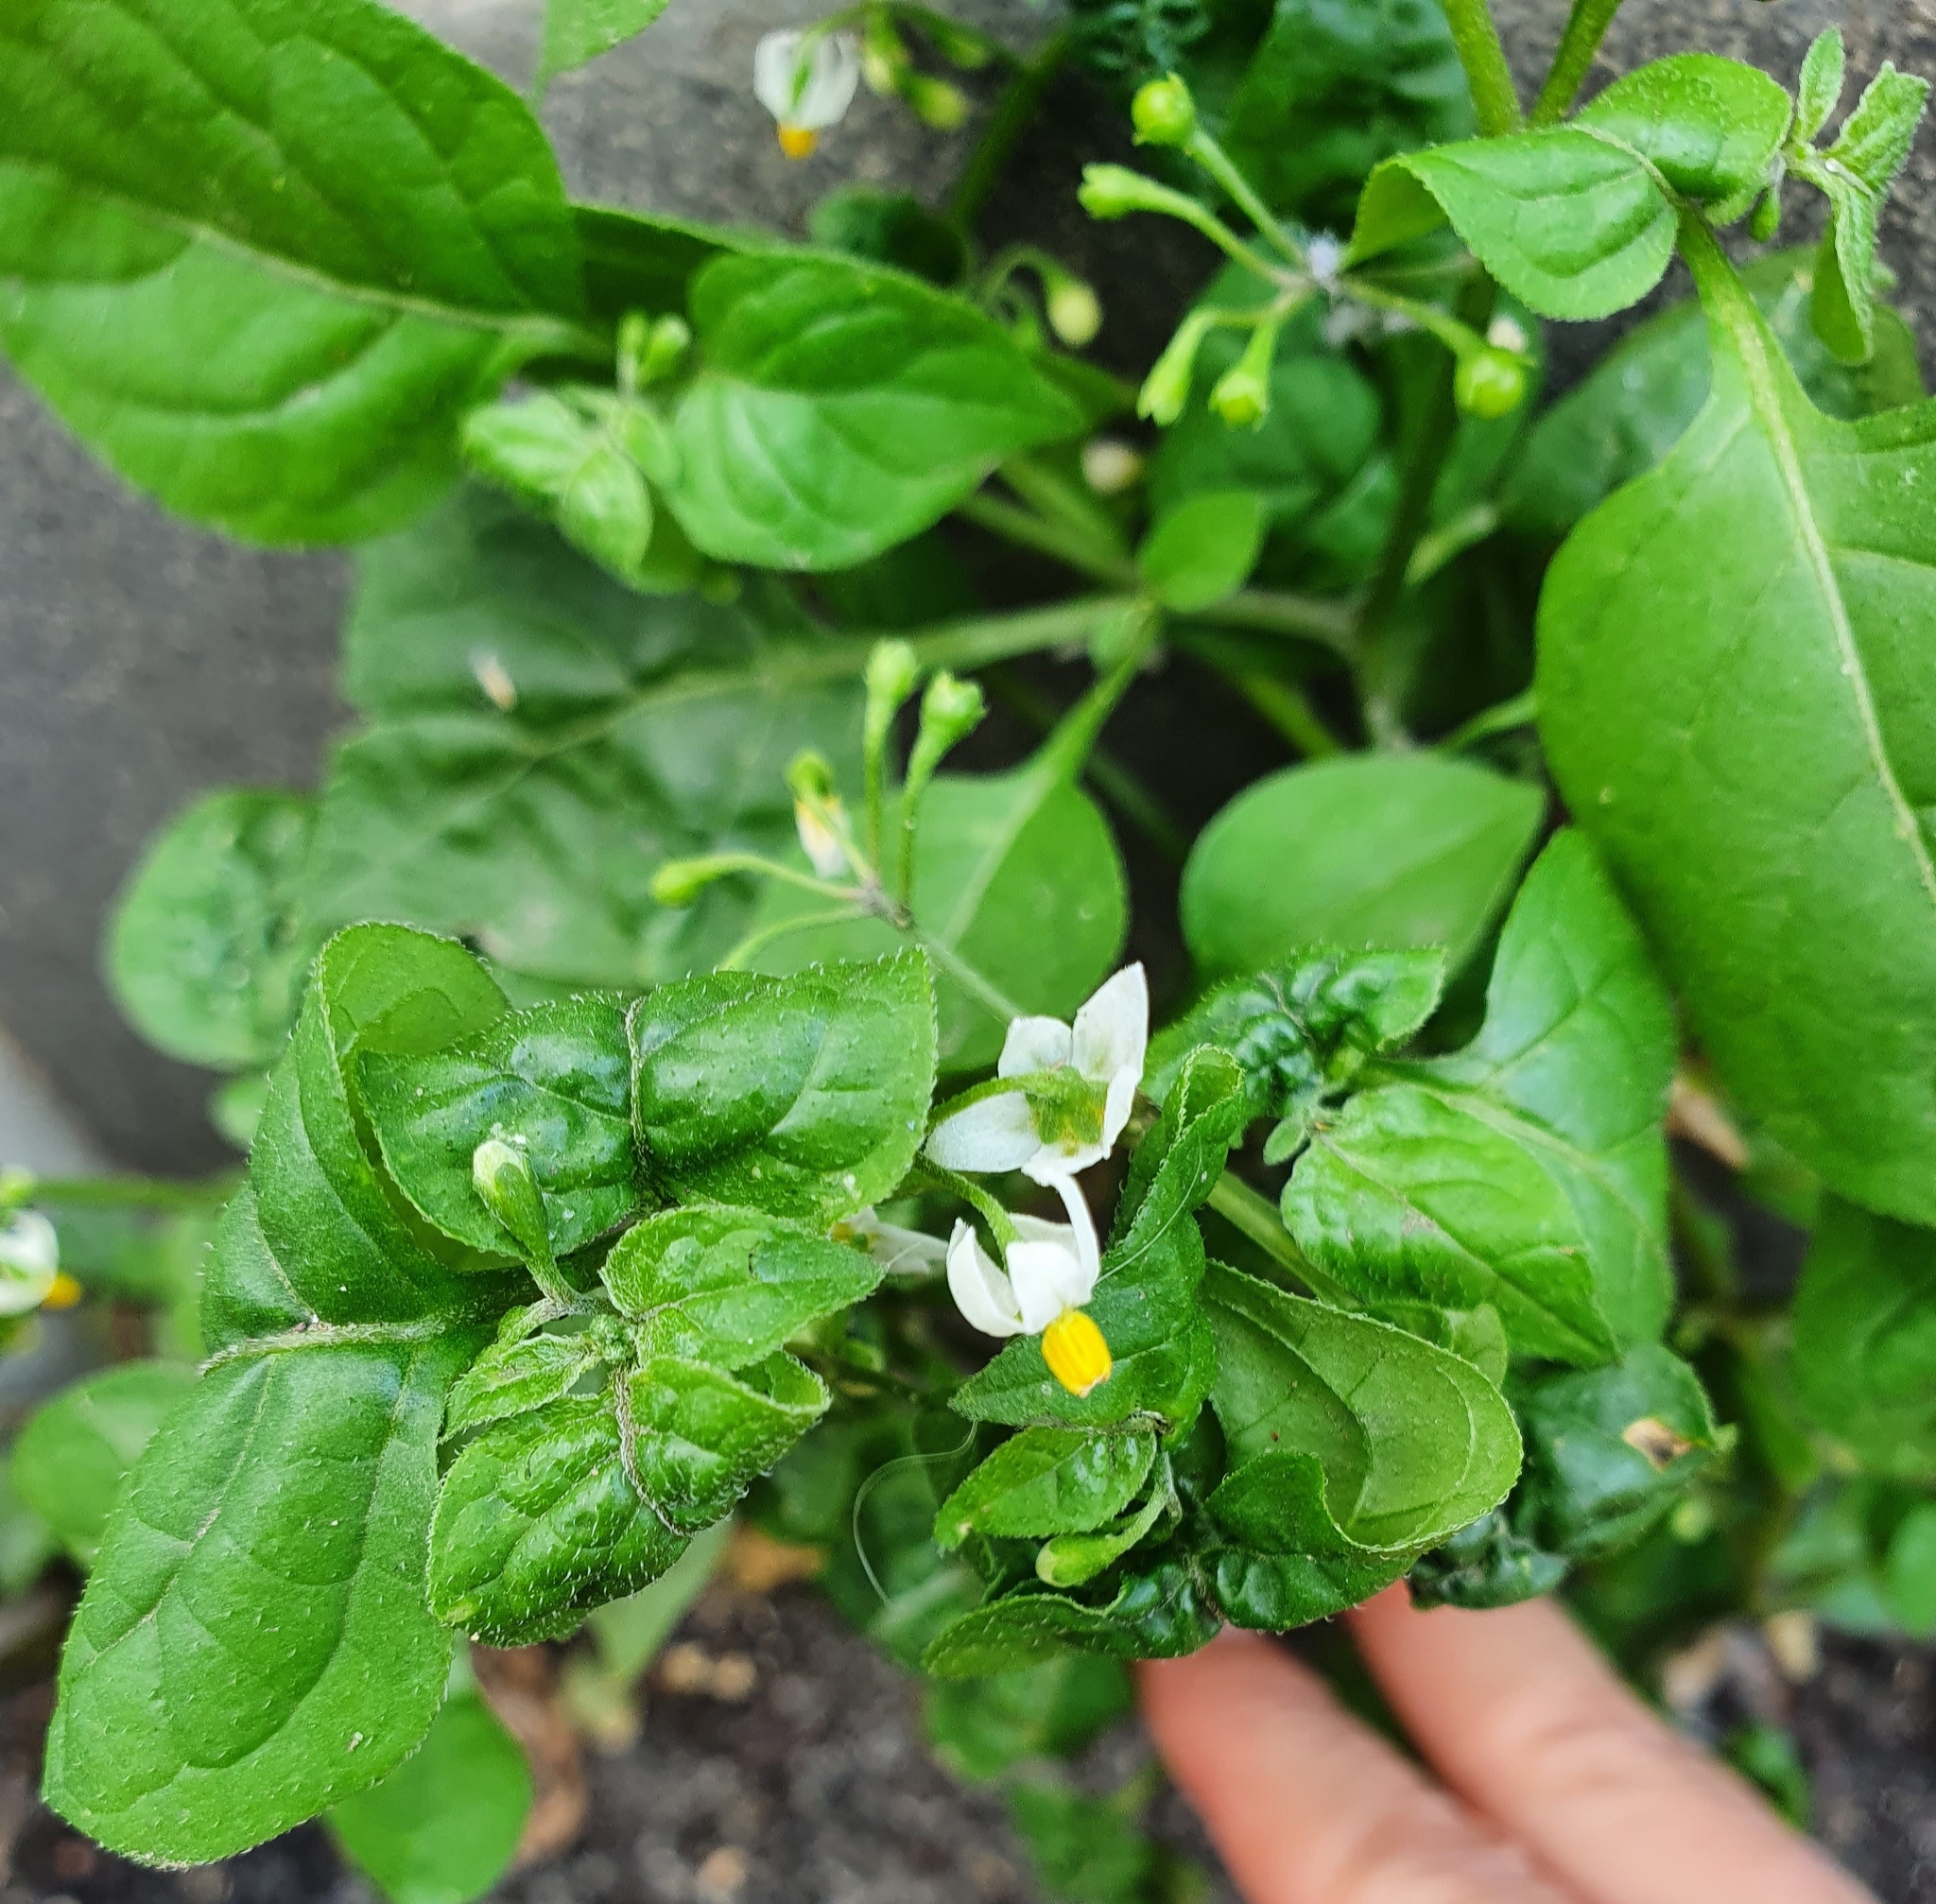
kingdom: Plantae
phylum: Tracheophyta
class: Magnoliopsida
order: Solanales
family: Solanaceae
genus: Solanum
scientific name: Solanum nigrum
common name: Black nightshade
